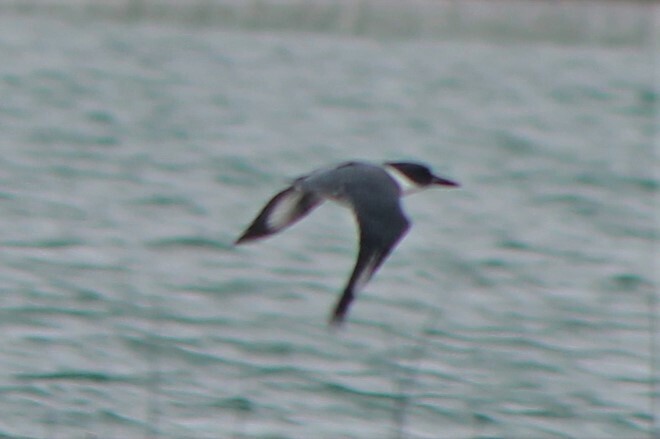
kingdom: Animalia
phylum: Chordata
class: Aves
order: Coraciiformes
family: Alcedinidae
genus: Megaceryle
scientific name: Megaceryle alcyon
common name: Belted kingfisher
